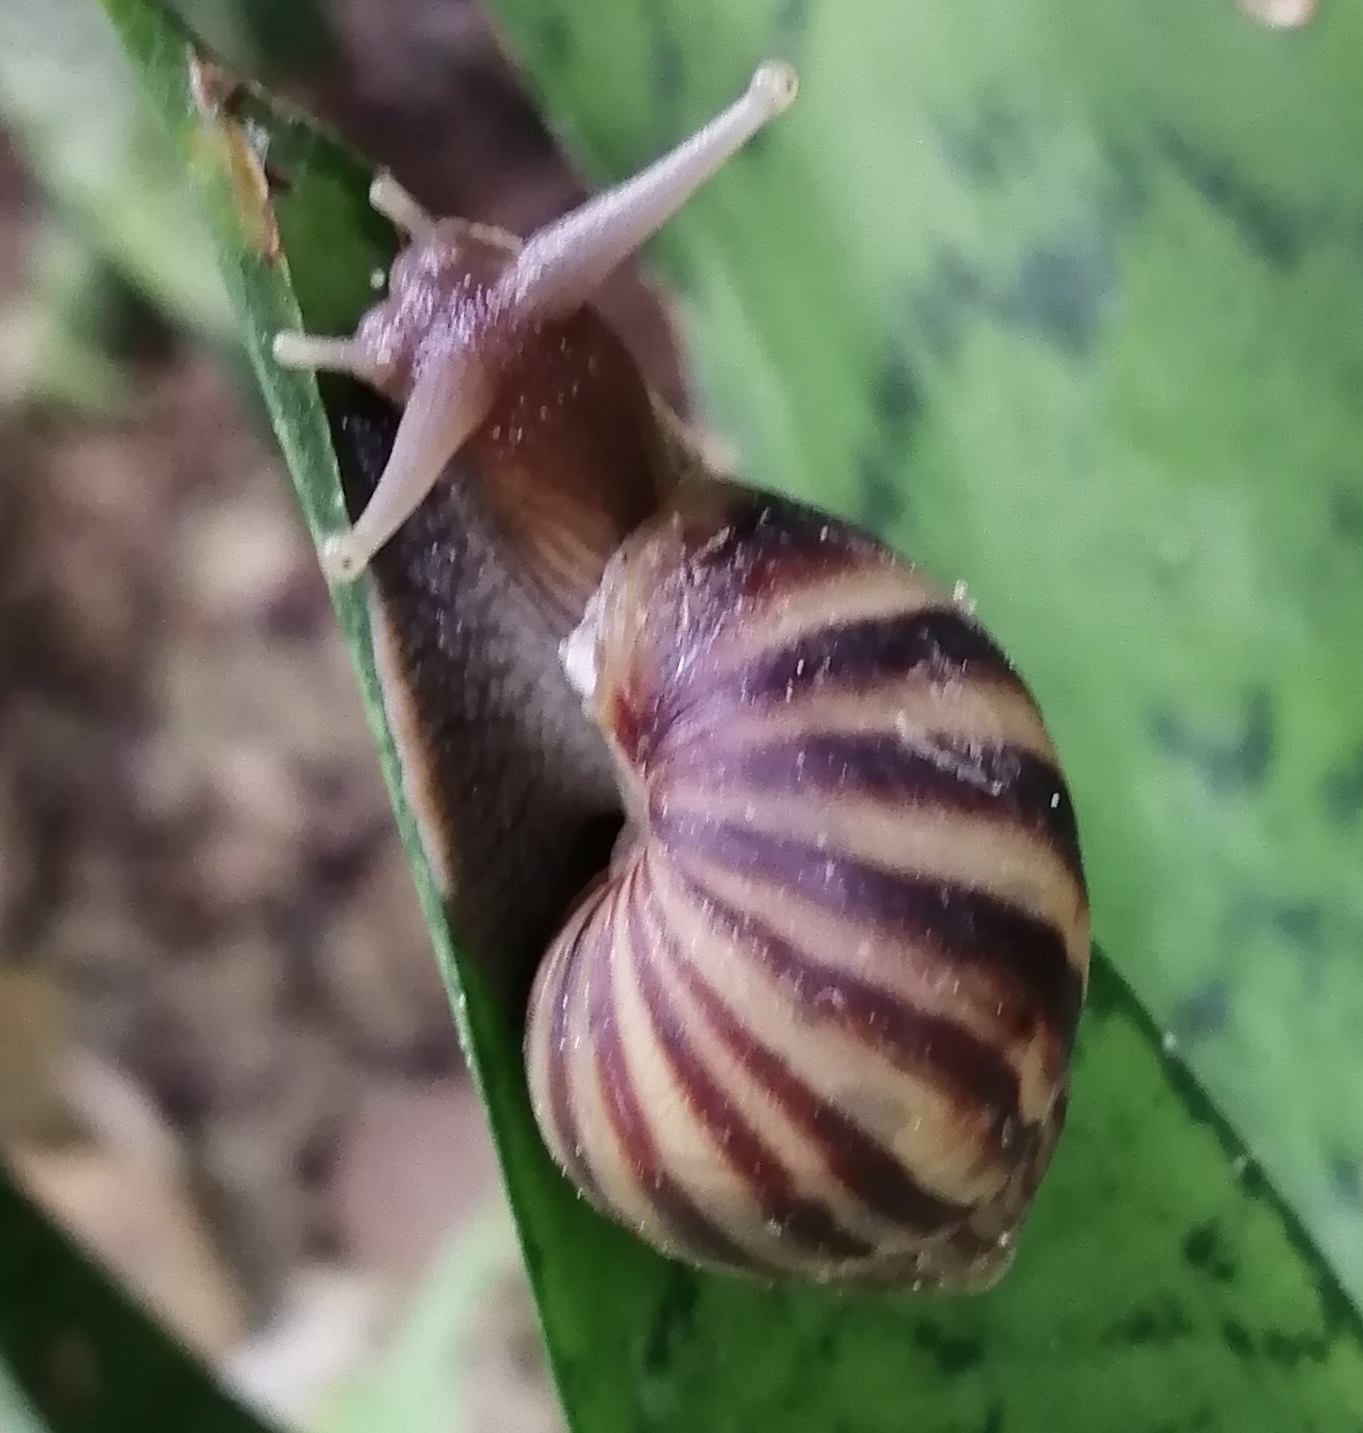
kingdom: Animalia
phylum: Mollusca
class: Gastropoda
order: Stylommatophora
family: Achatinidae
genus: Lissachatina
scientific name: Lissachatina fulica
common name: Giant african snail
